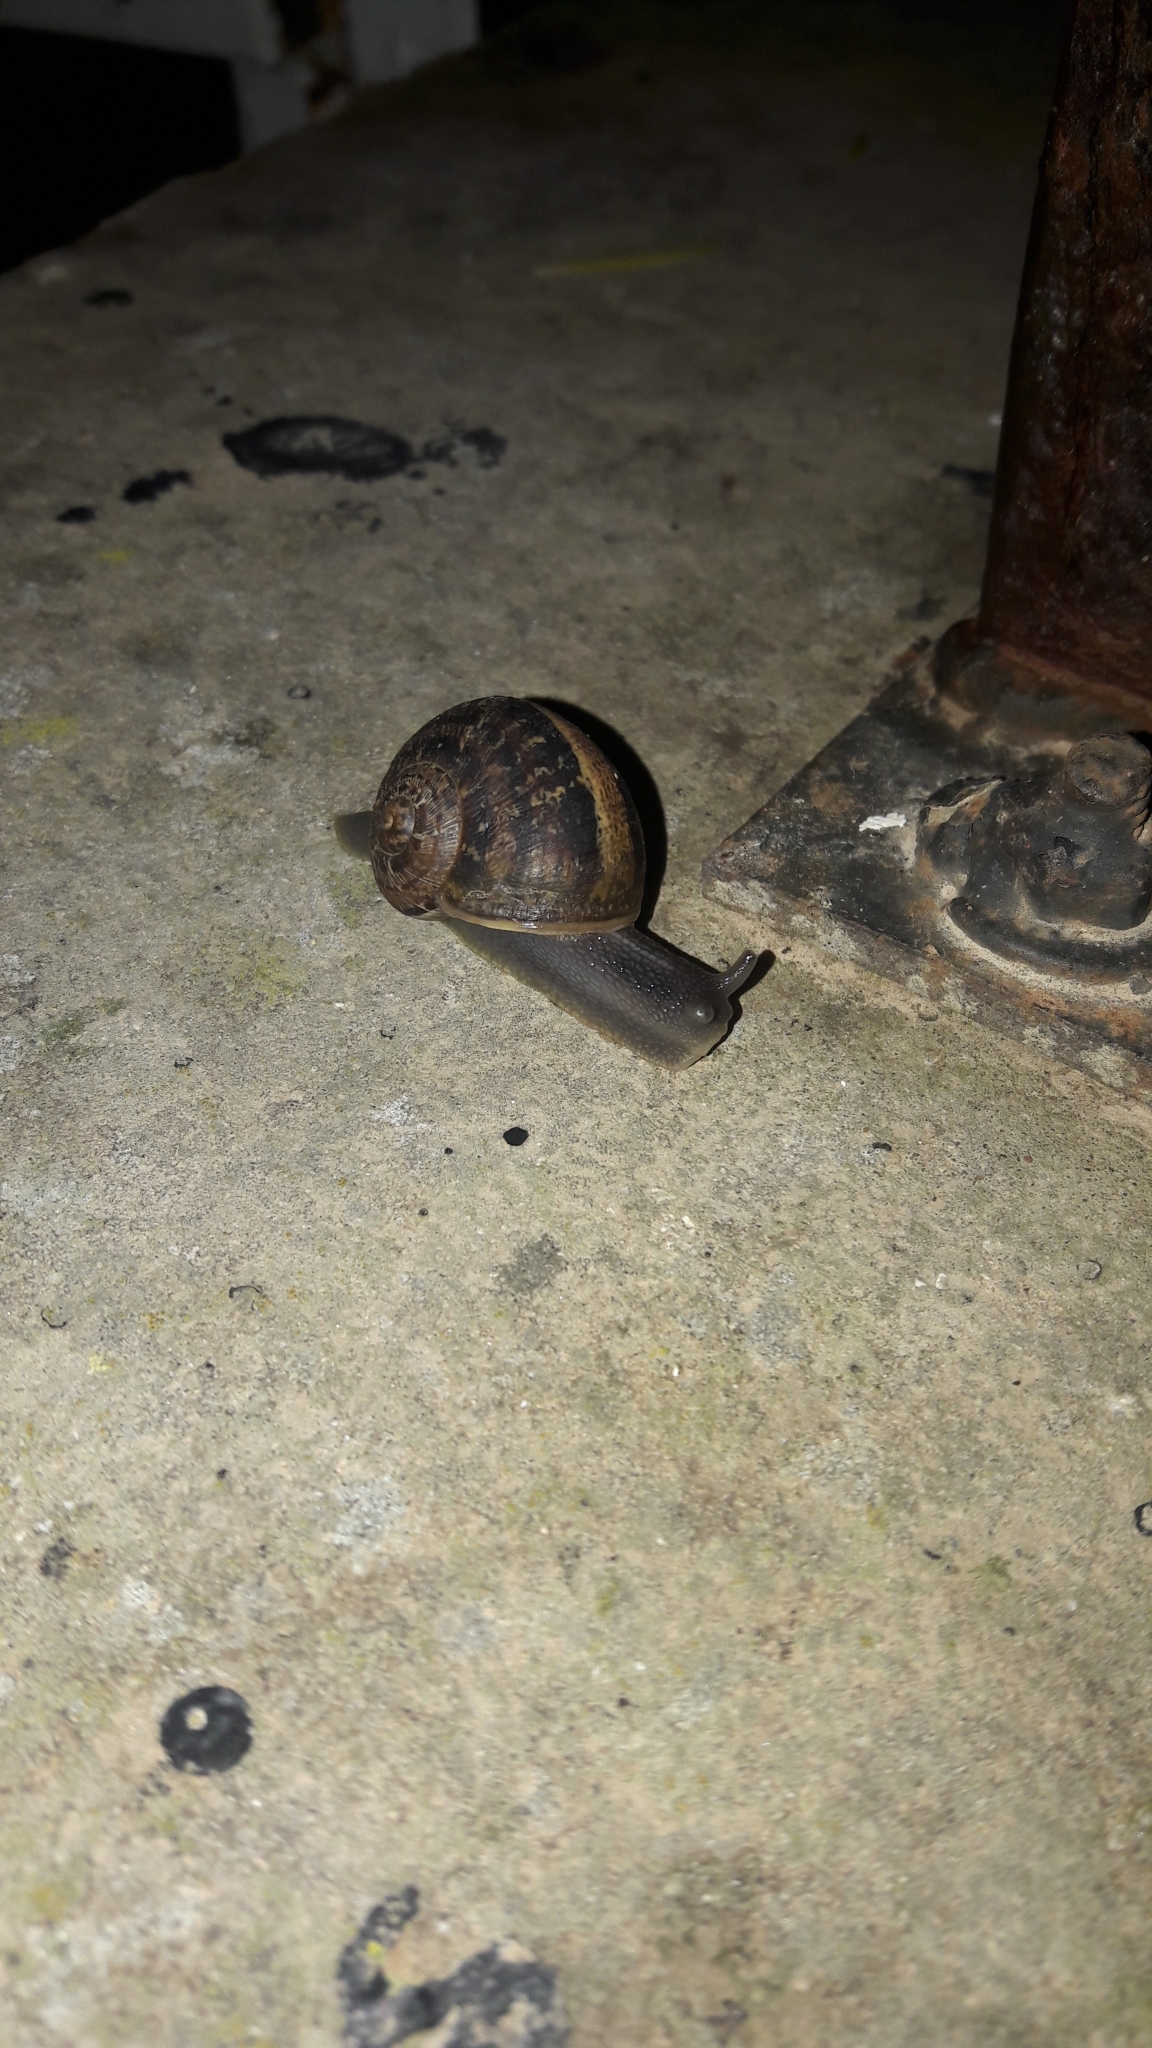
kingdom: Animalia
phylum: Mollusca
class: Gastropoda
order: Stylommatophora
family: Helicidae
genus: Cornu
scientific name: Cornu aspersum
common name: Brown garden snail
